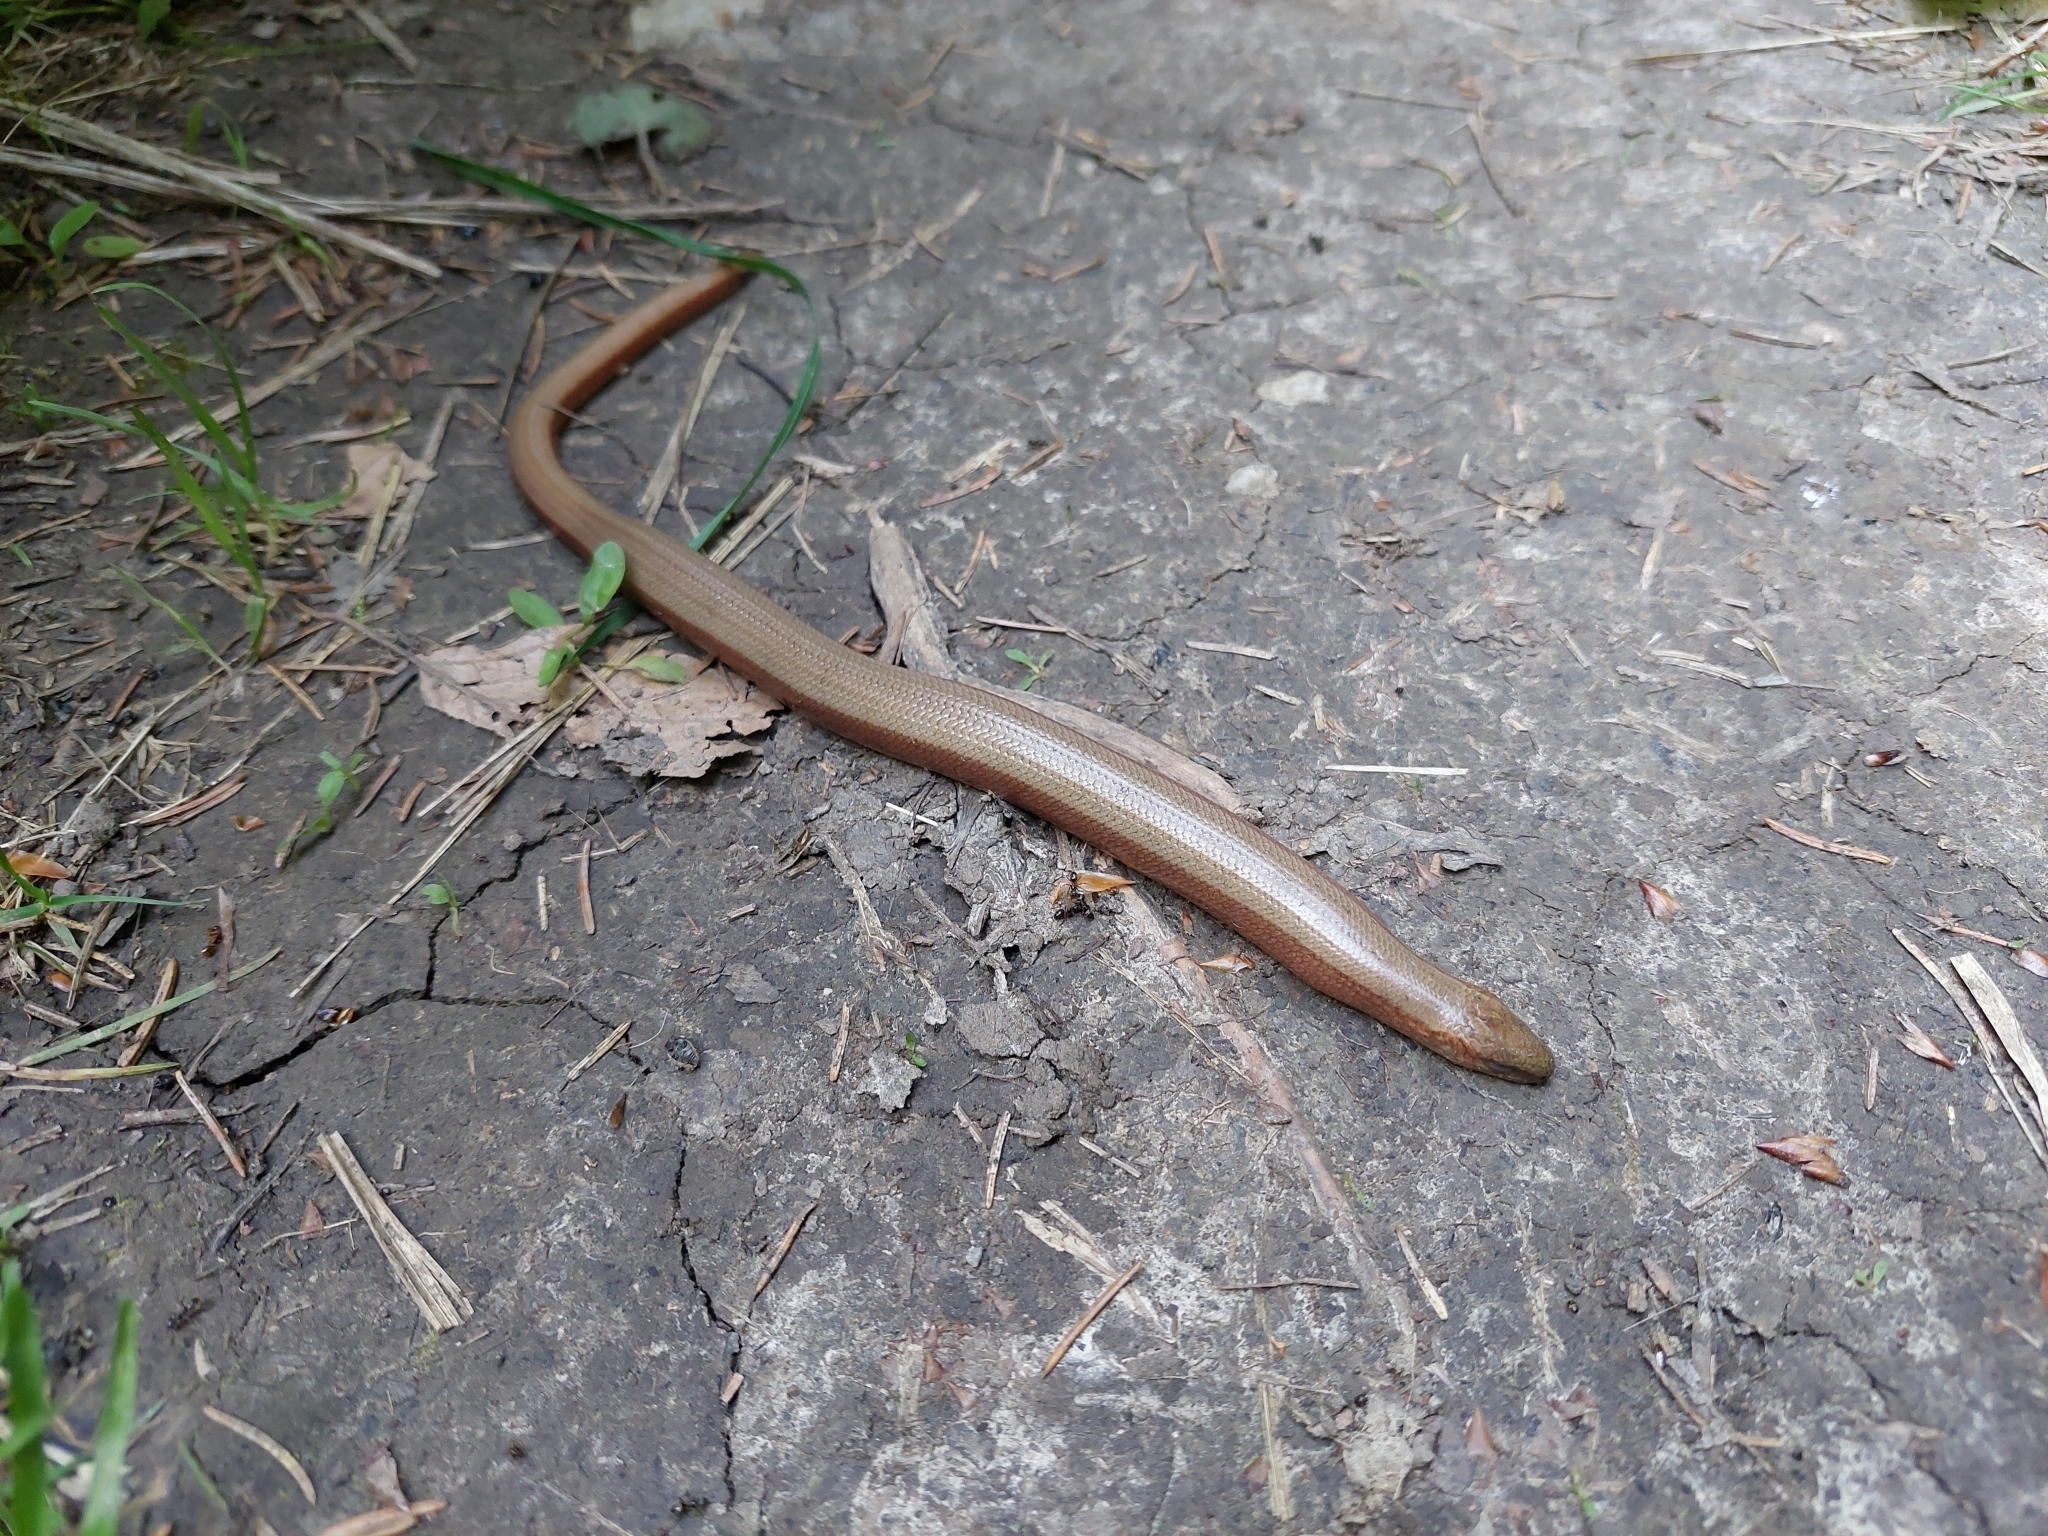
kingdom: Animalia
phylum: Chordata
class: Squamata
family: Anguidae
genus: Anguis
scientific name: Anguis fragilis
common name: Slow worm
